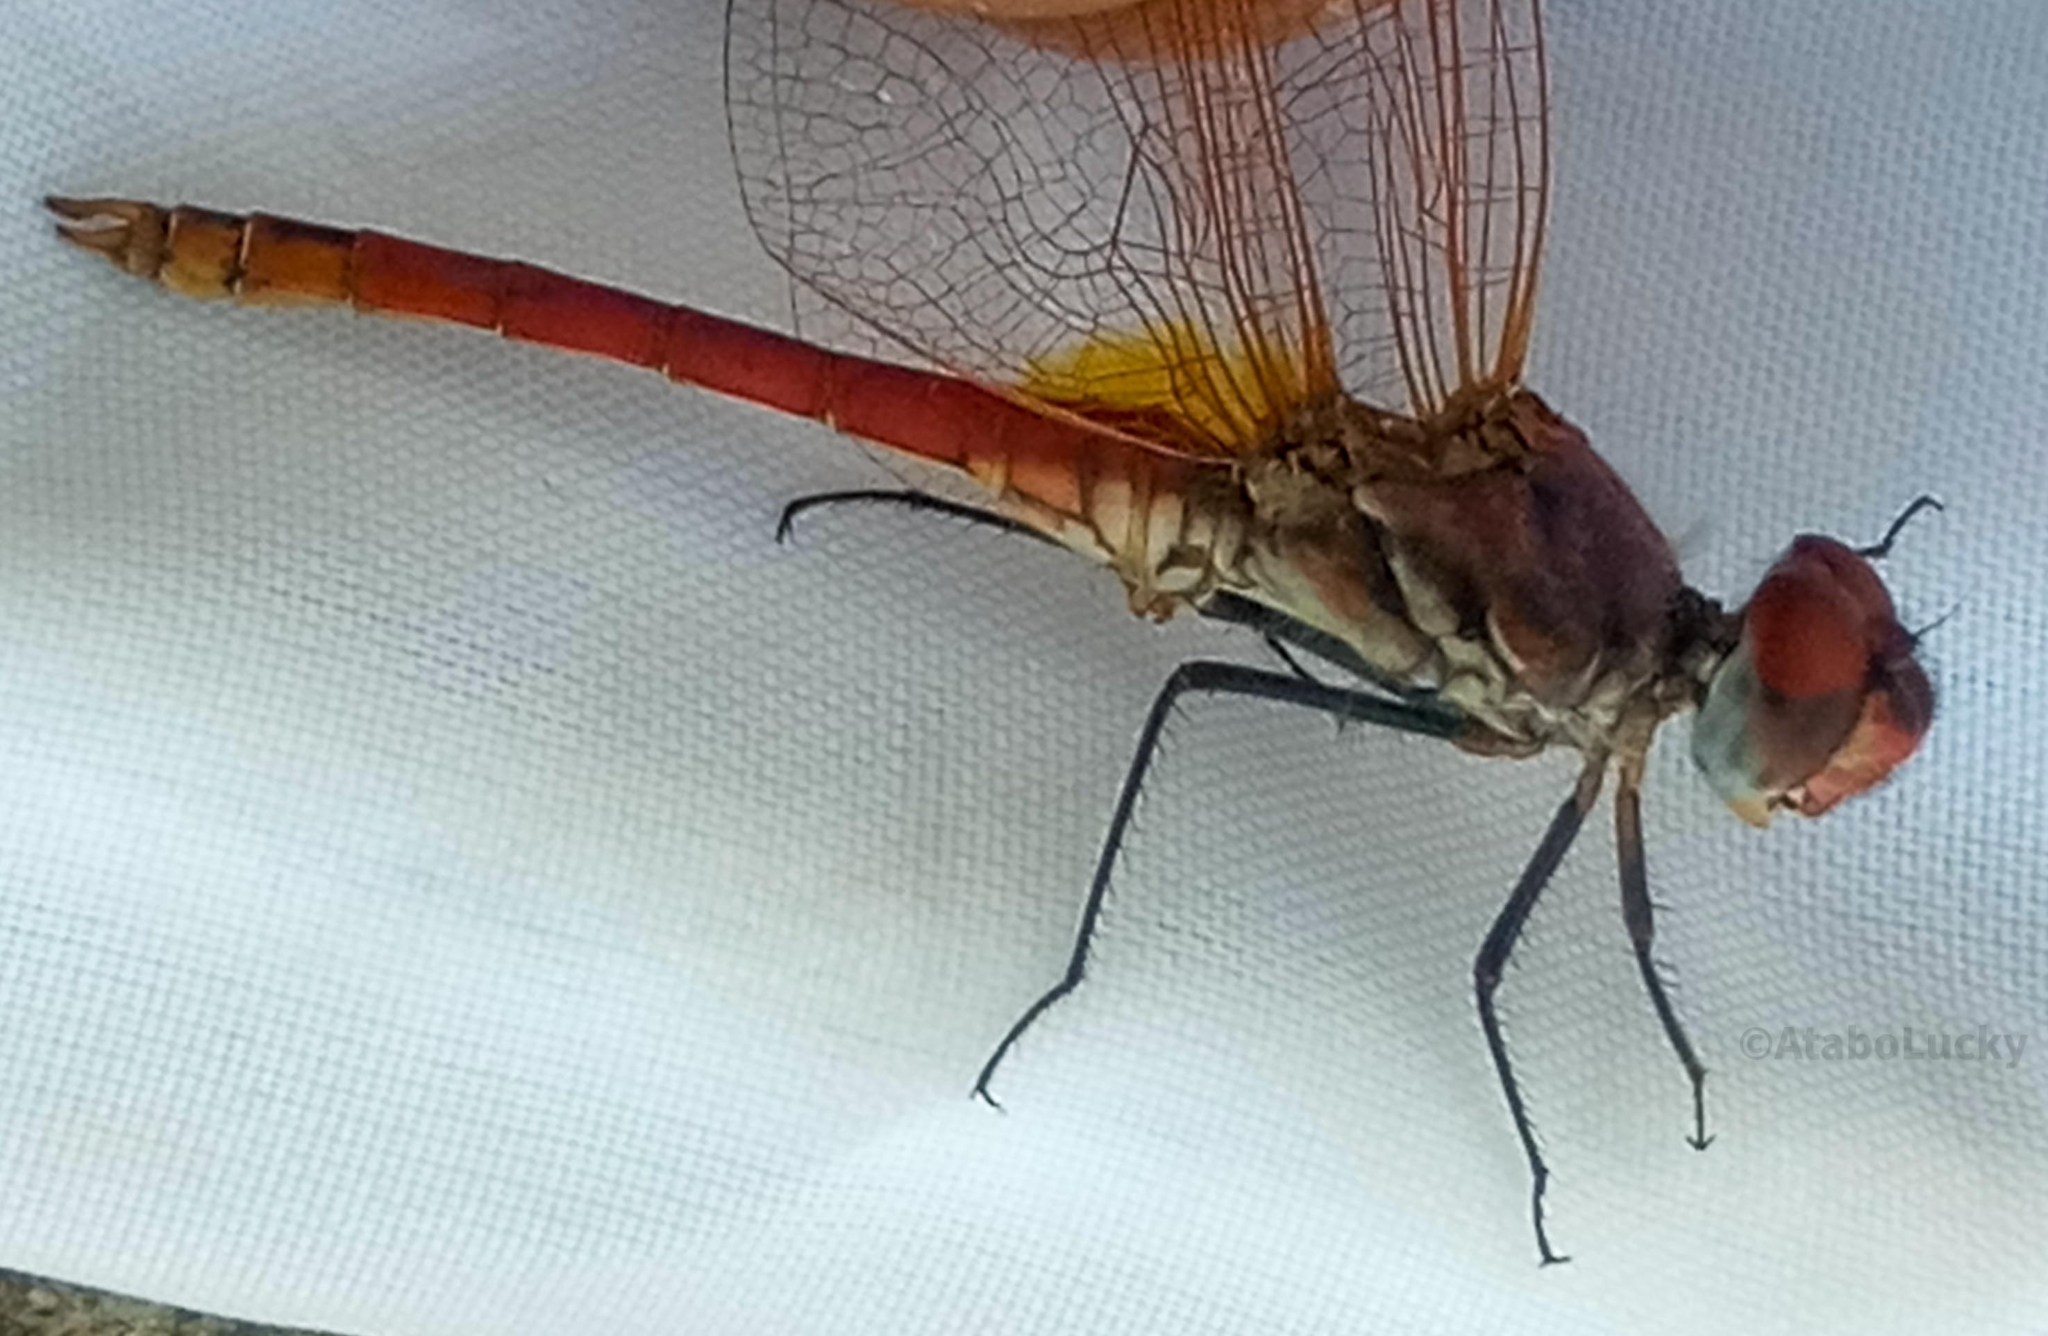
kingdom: Animalia
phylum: Arthropoda
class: Insecta
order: Odonata
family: Libellulidae
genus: Trithemis
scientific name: Trithemis annulata
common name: Violet dropwing
